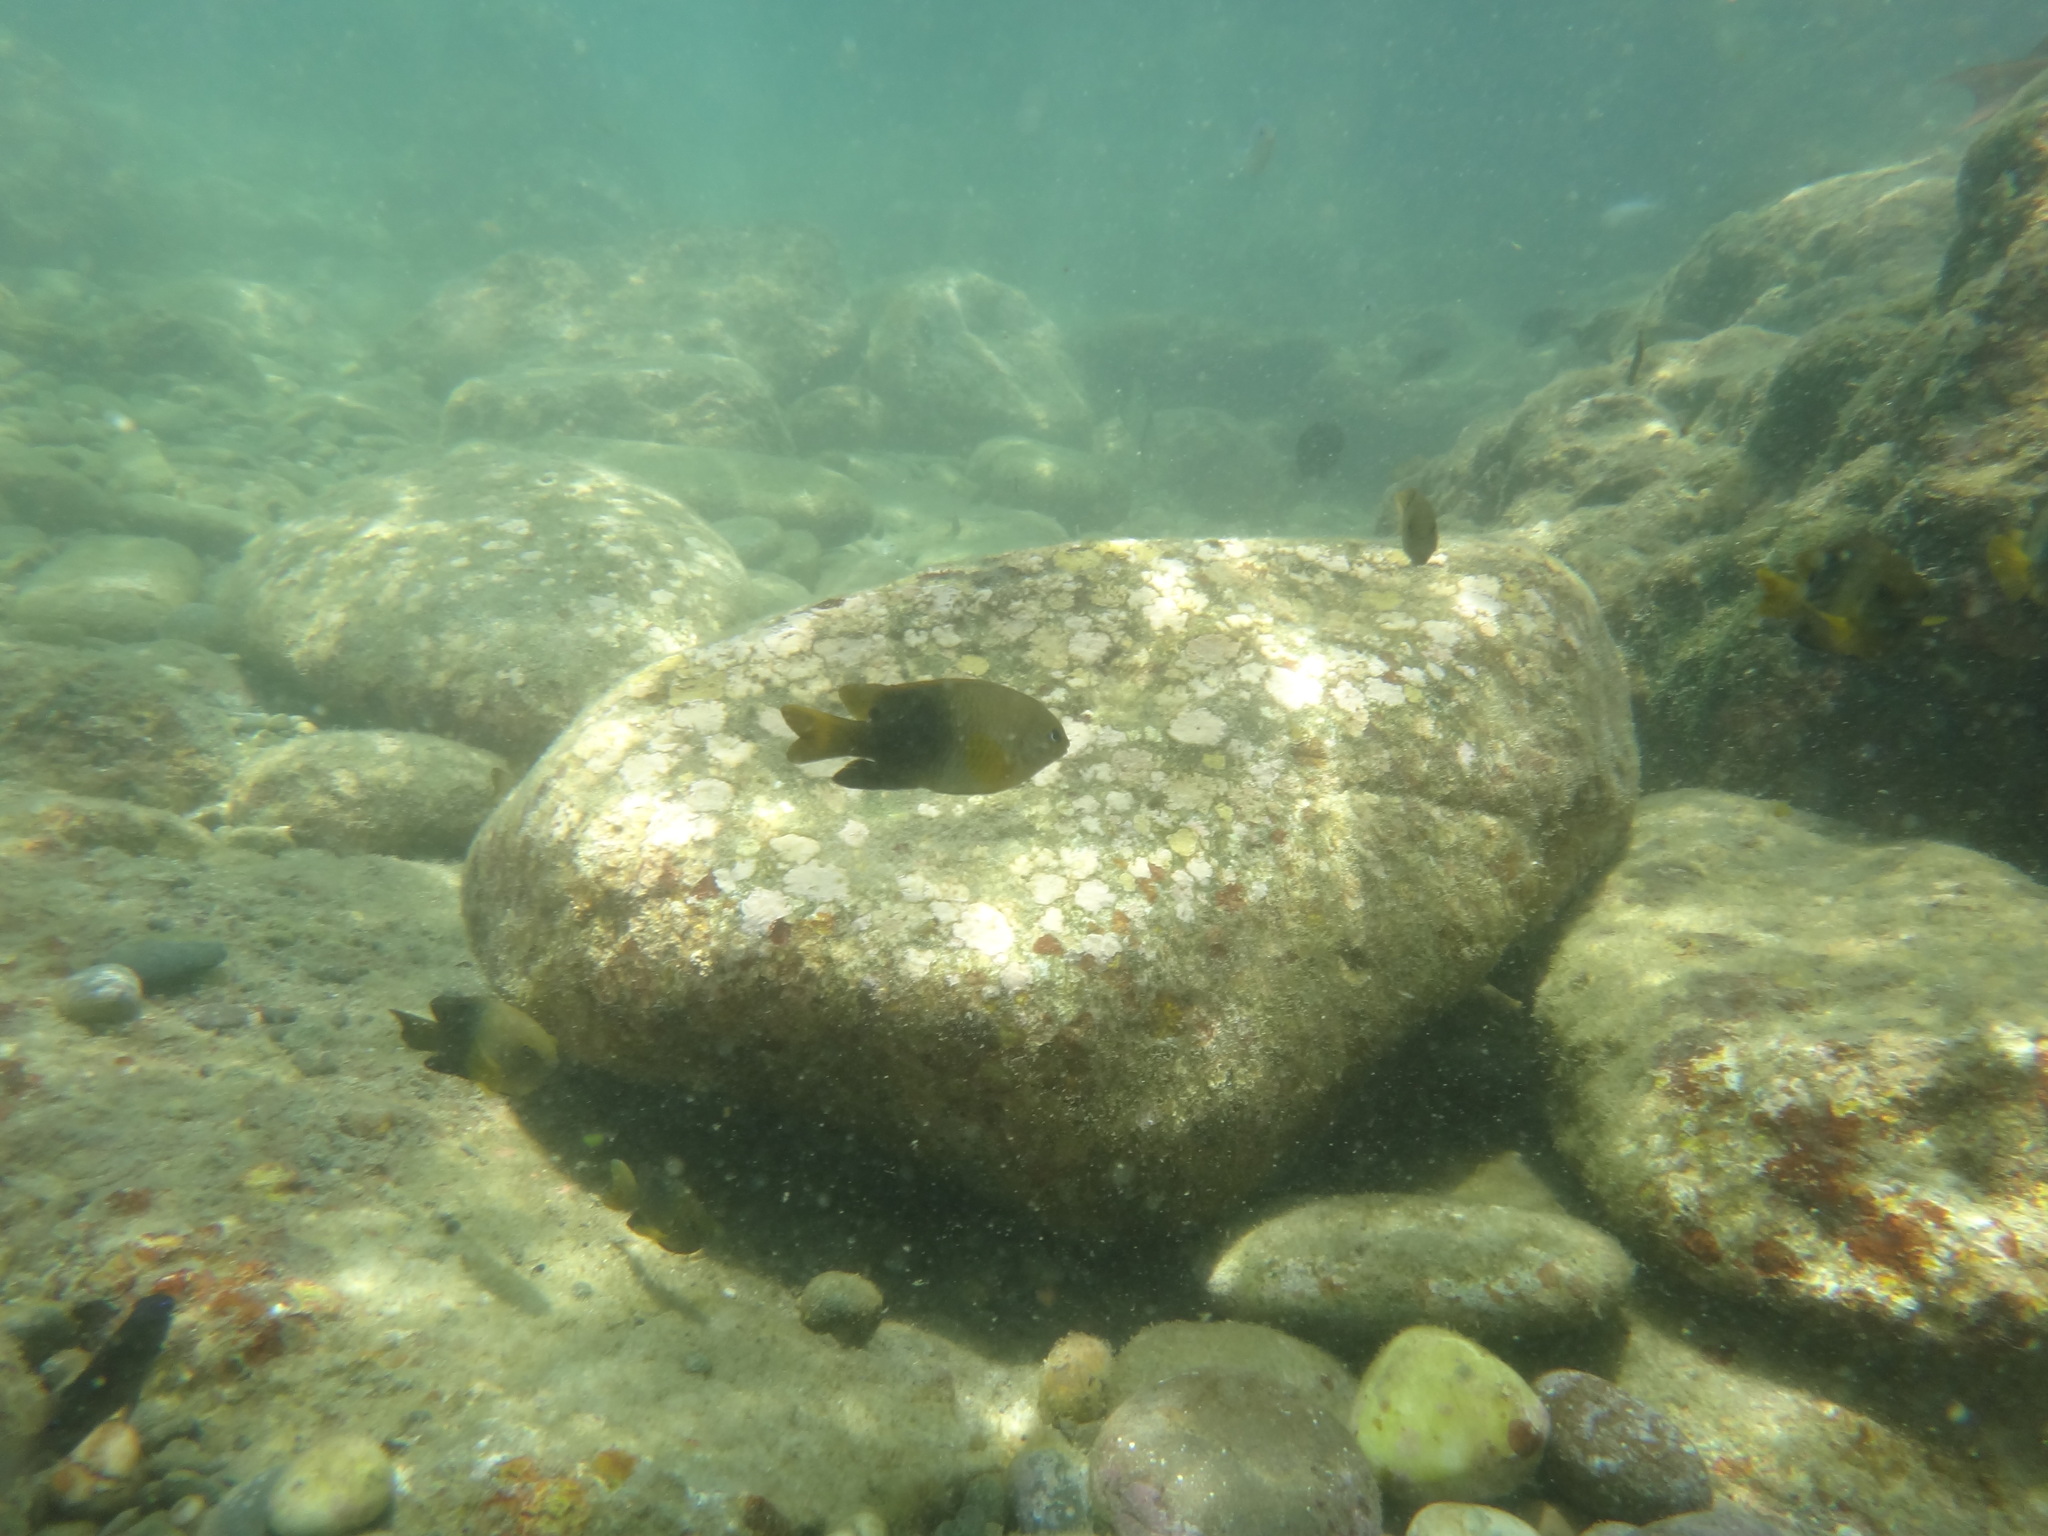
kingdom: Animalia
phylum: Chordata
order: Perciformes
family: Pomacentridae
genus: Chrysiptera
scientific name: Chrysiptera unimaculata
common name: Onespot demoiselle
